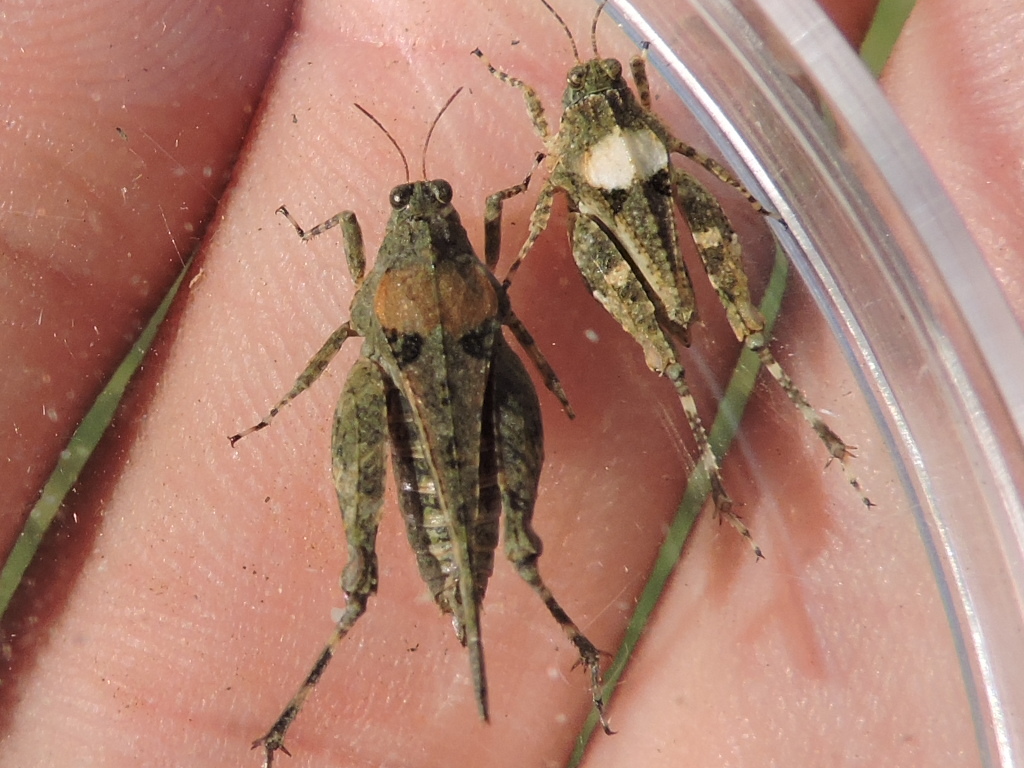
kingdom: Animalia
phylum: Arthropoda
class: Insecta
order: Orthoptera
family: Tetrigidae
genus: Paratettix
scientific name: Paratettix mexicanus
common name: Mexican pygmy grasshopper
